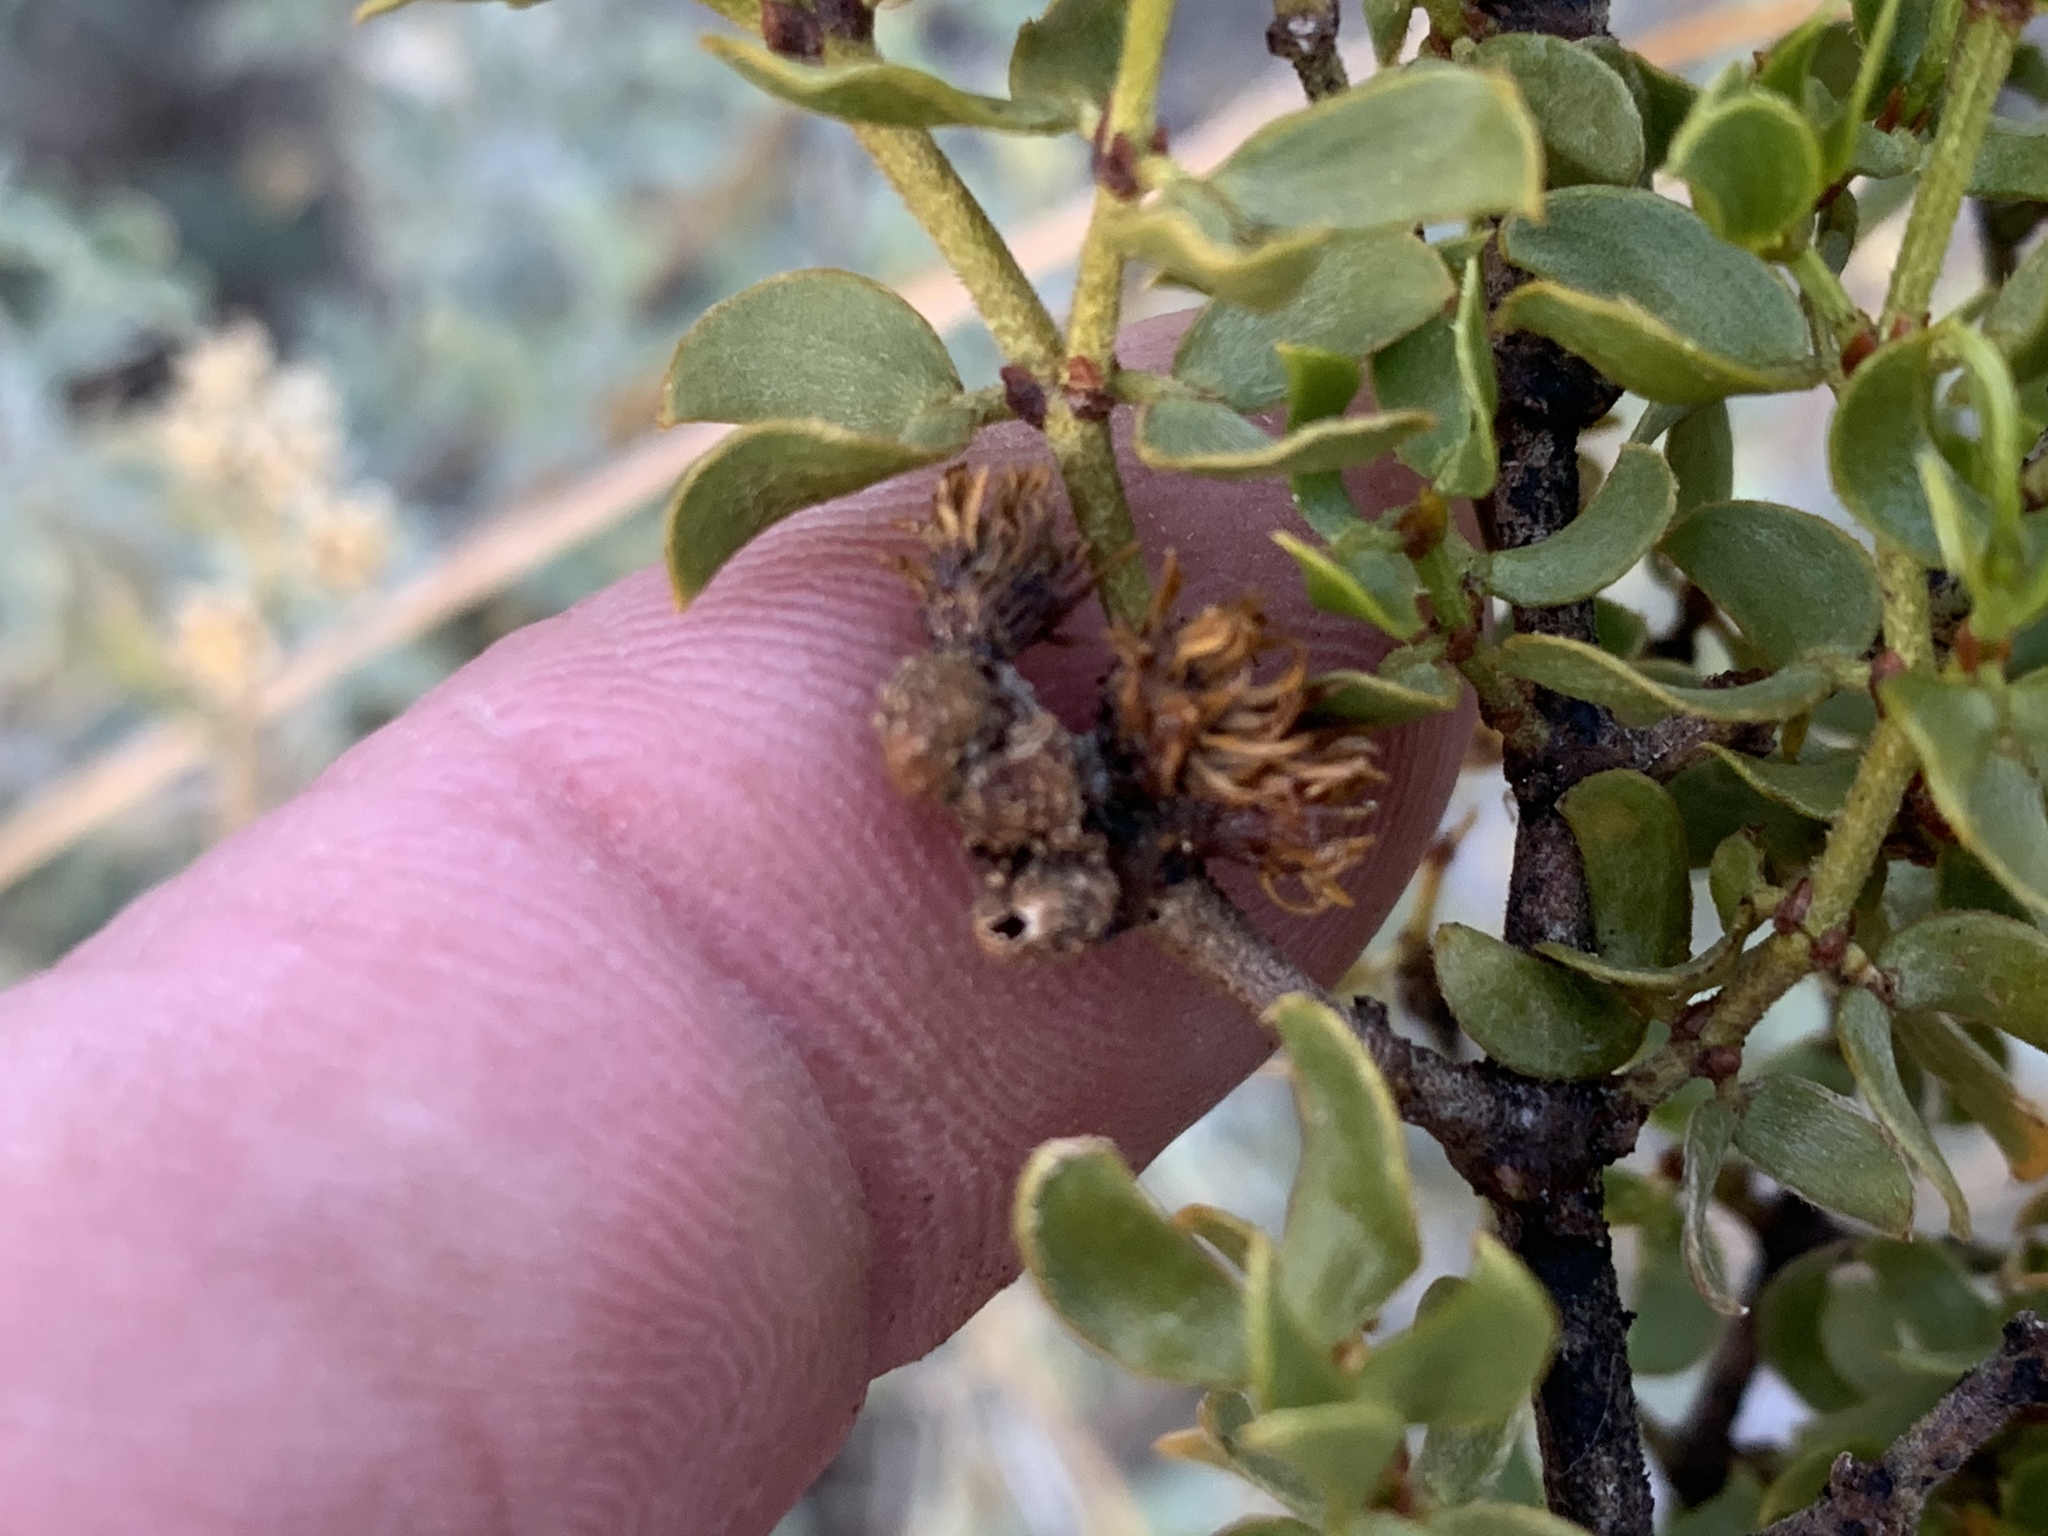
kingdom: Animalia
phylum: Arthropoda
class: Insecta
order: Diptera
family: Cecidomyiidae
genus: Asphondylia
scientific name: Asphondylia auripila
